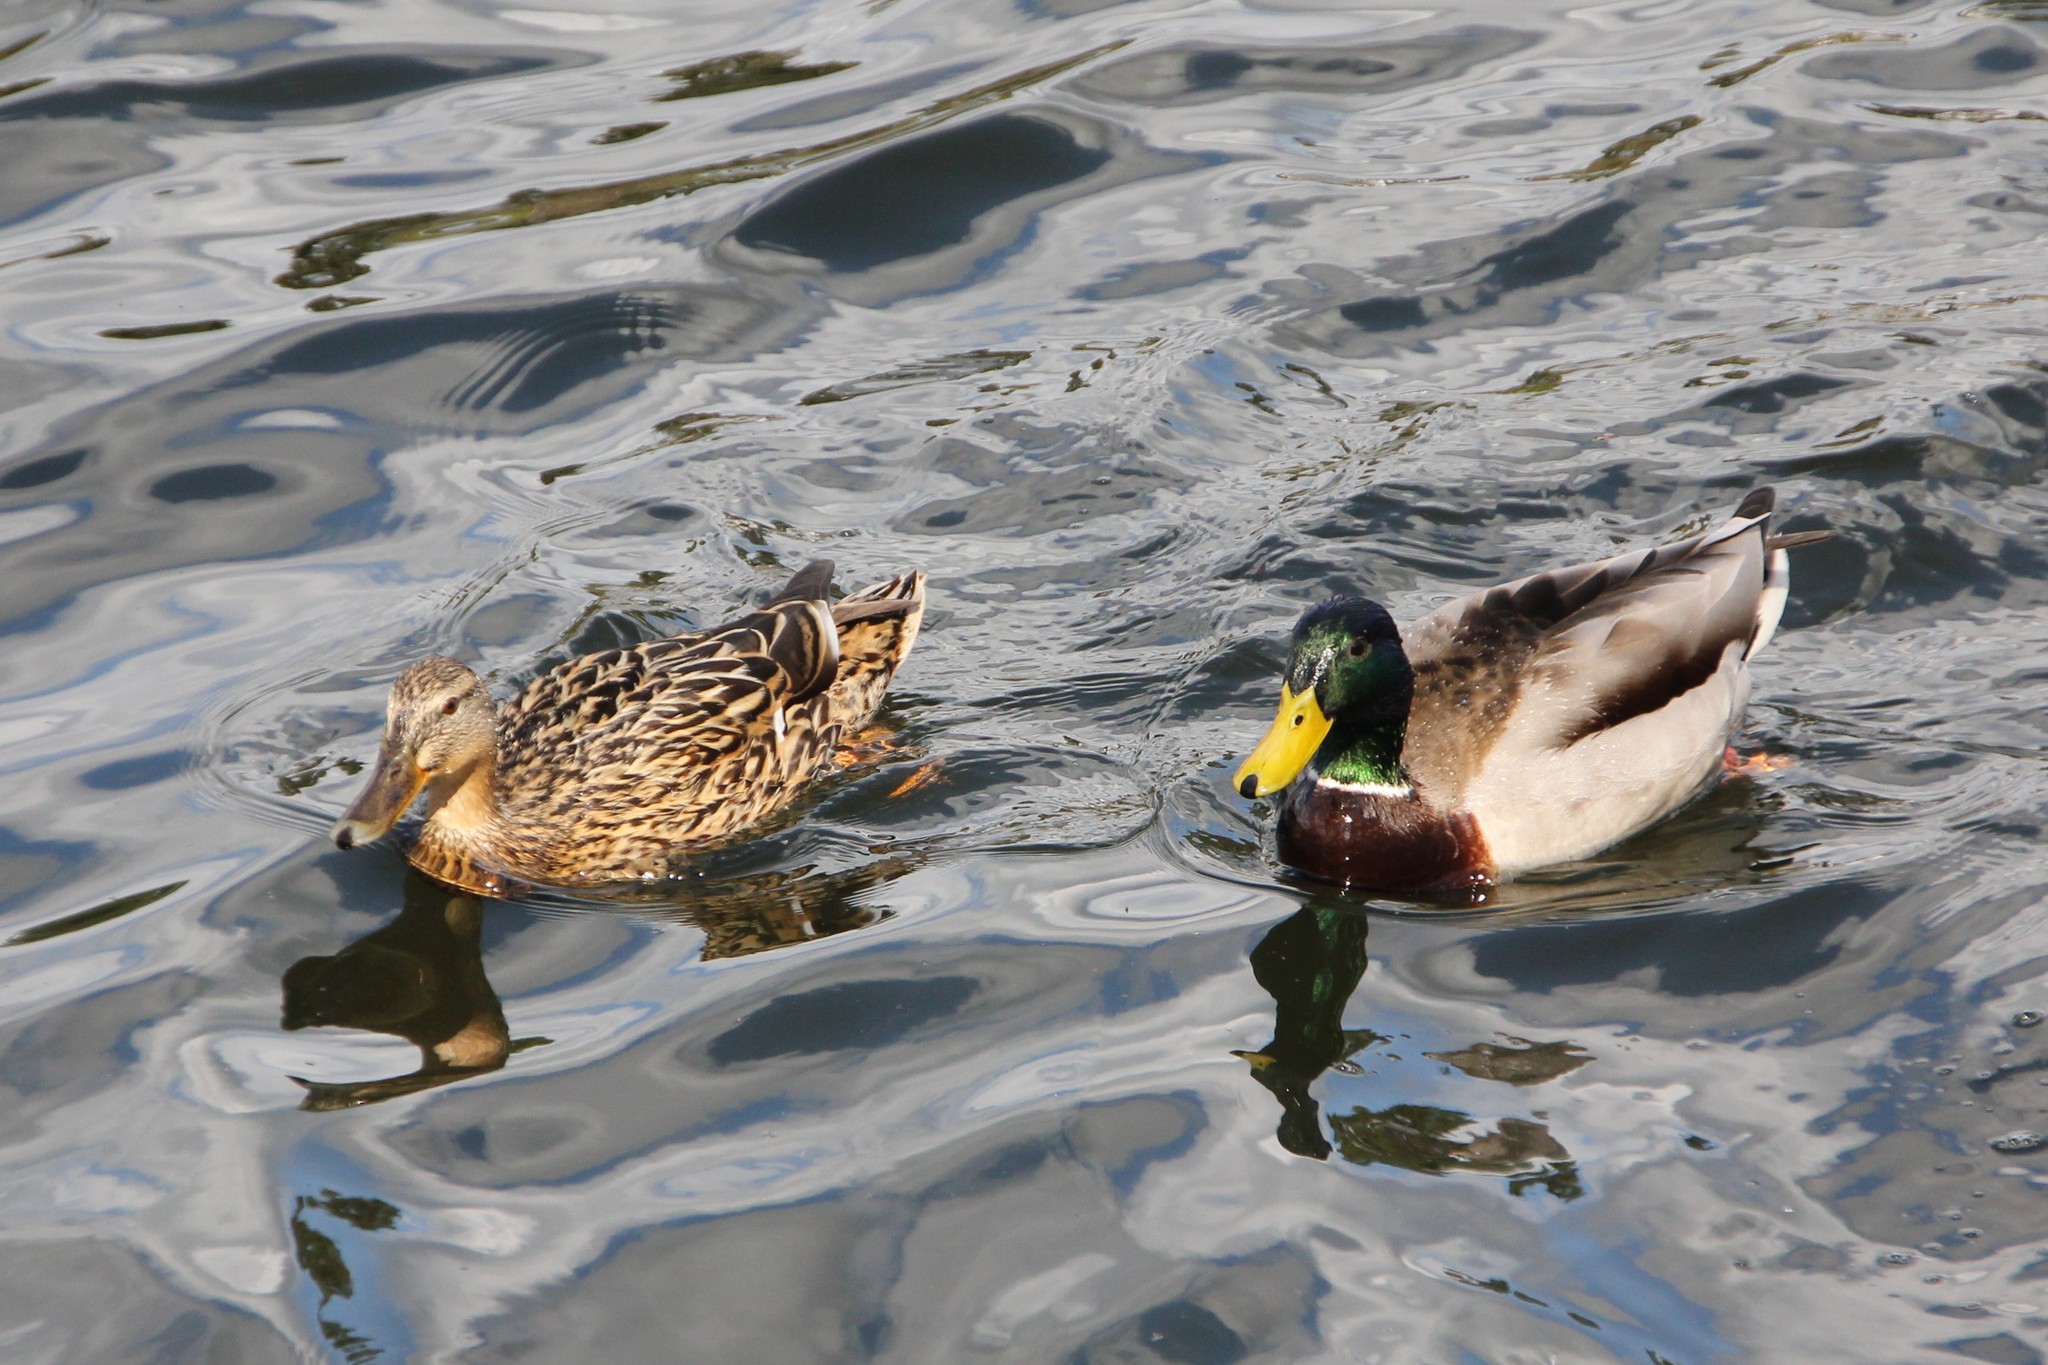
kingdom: Animalia
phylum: Chordata
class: Aves
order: Anseriformes
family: Anatidae
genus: Anas
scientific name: Anas platyrhynchos
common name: Mallard
